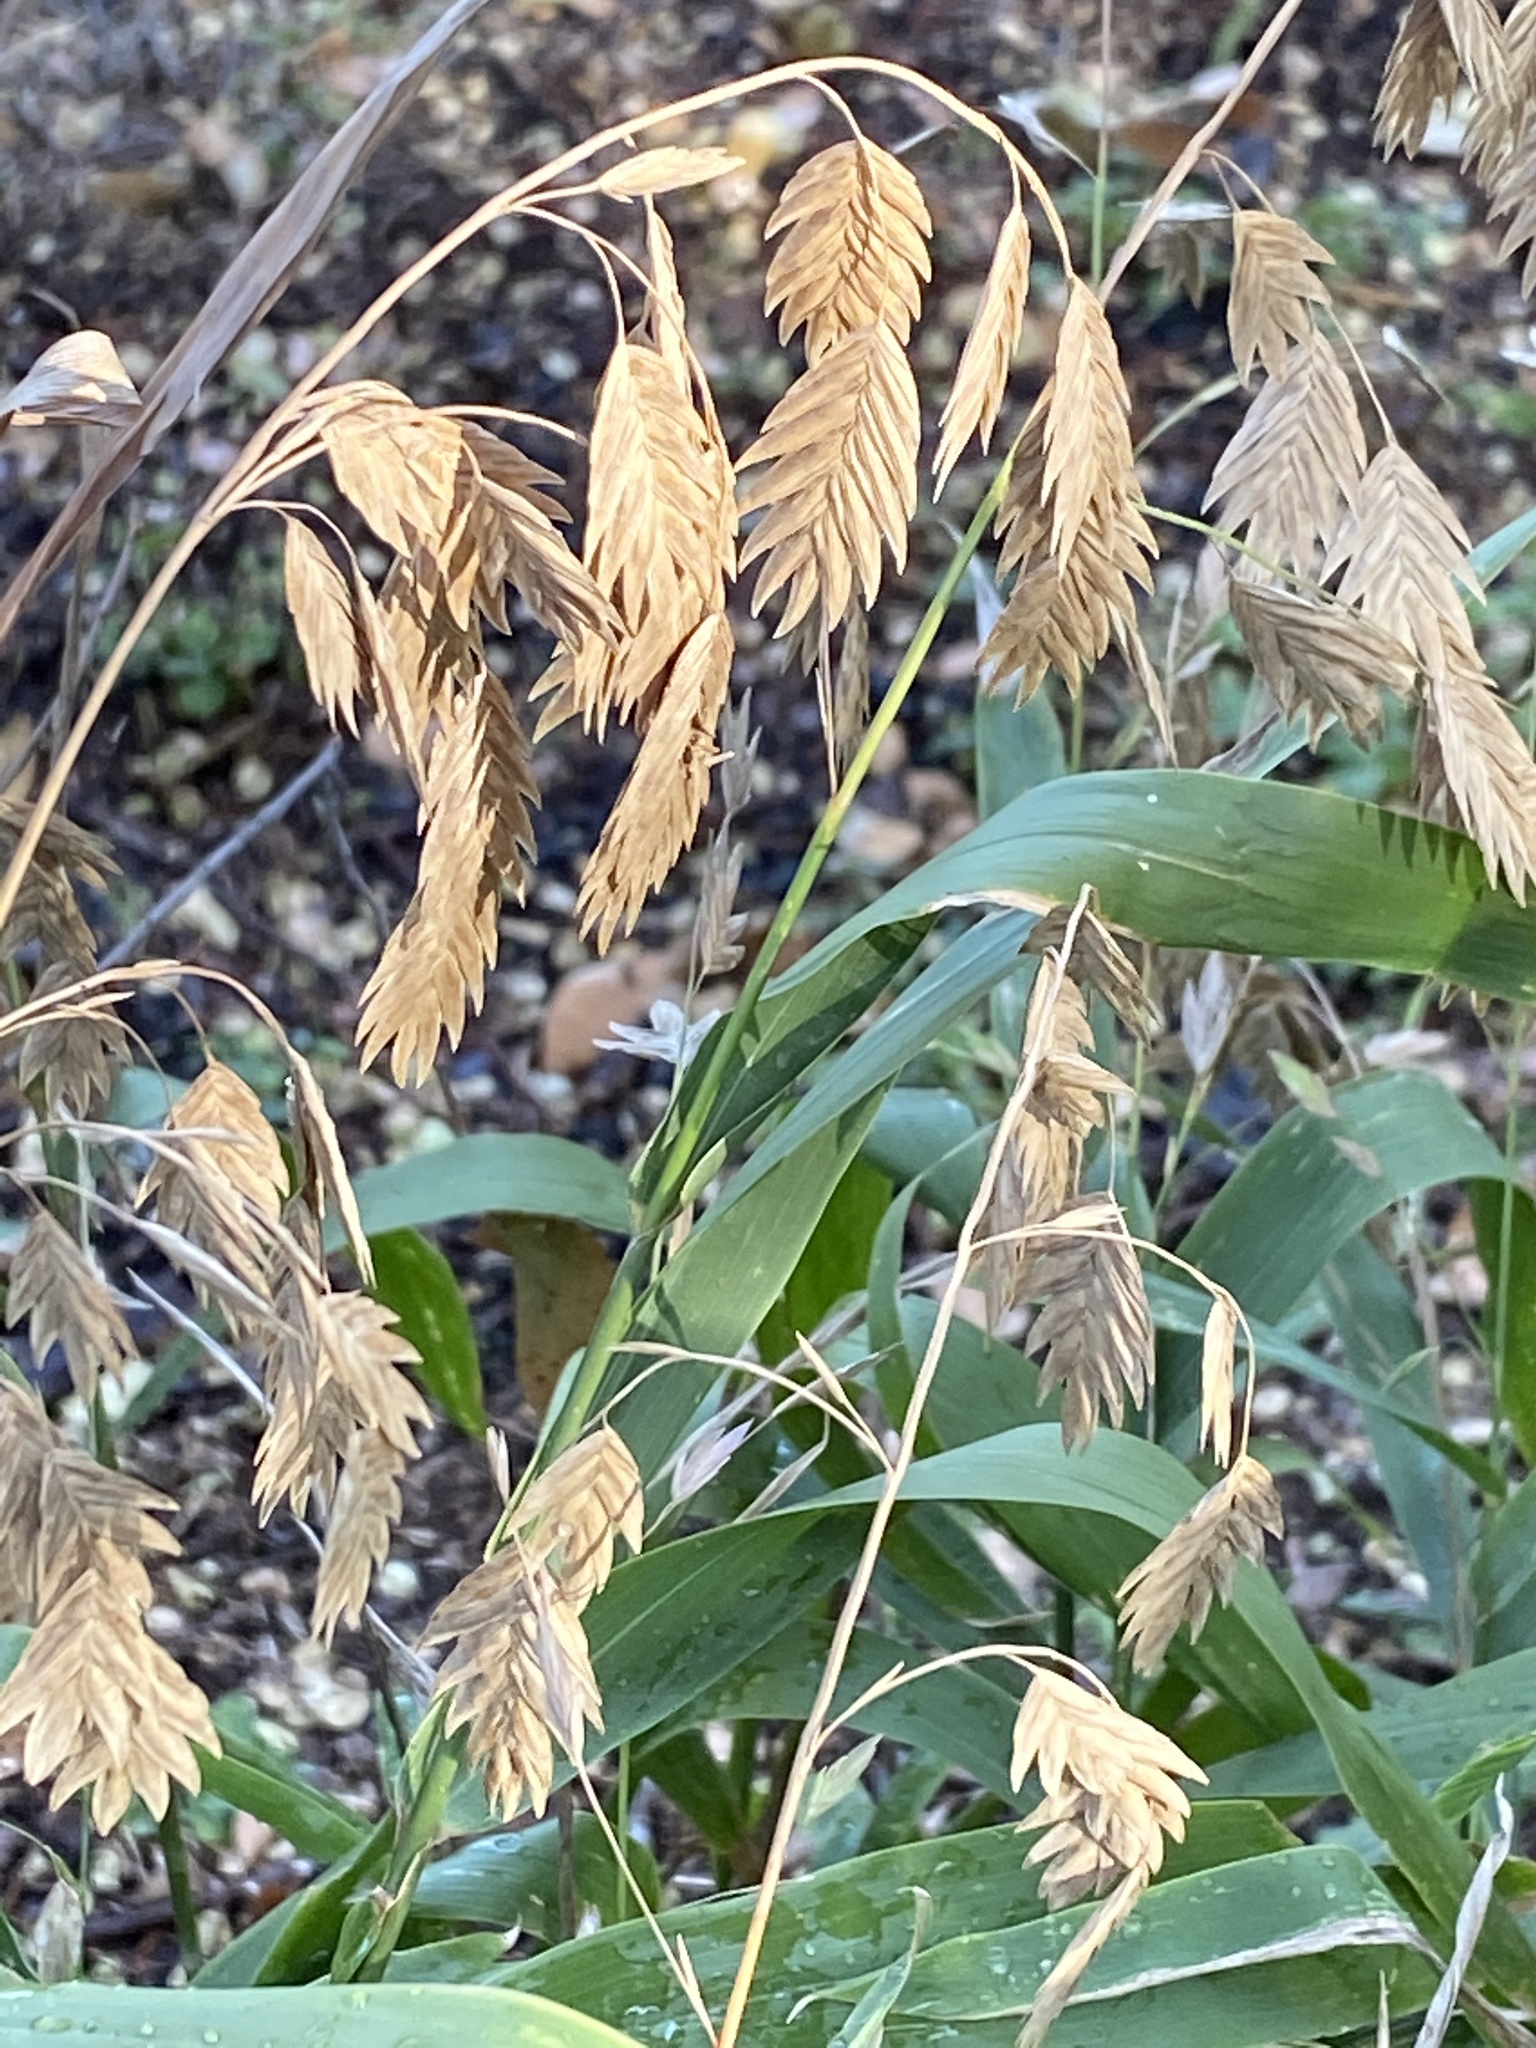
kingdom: Plantae
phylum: Tracheophyta
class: Liliopsida
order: Poales
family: Poaceae
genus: Chasmanthium
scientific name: Chasmanthium latifolium
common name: Broad-leaved chasmanthium
